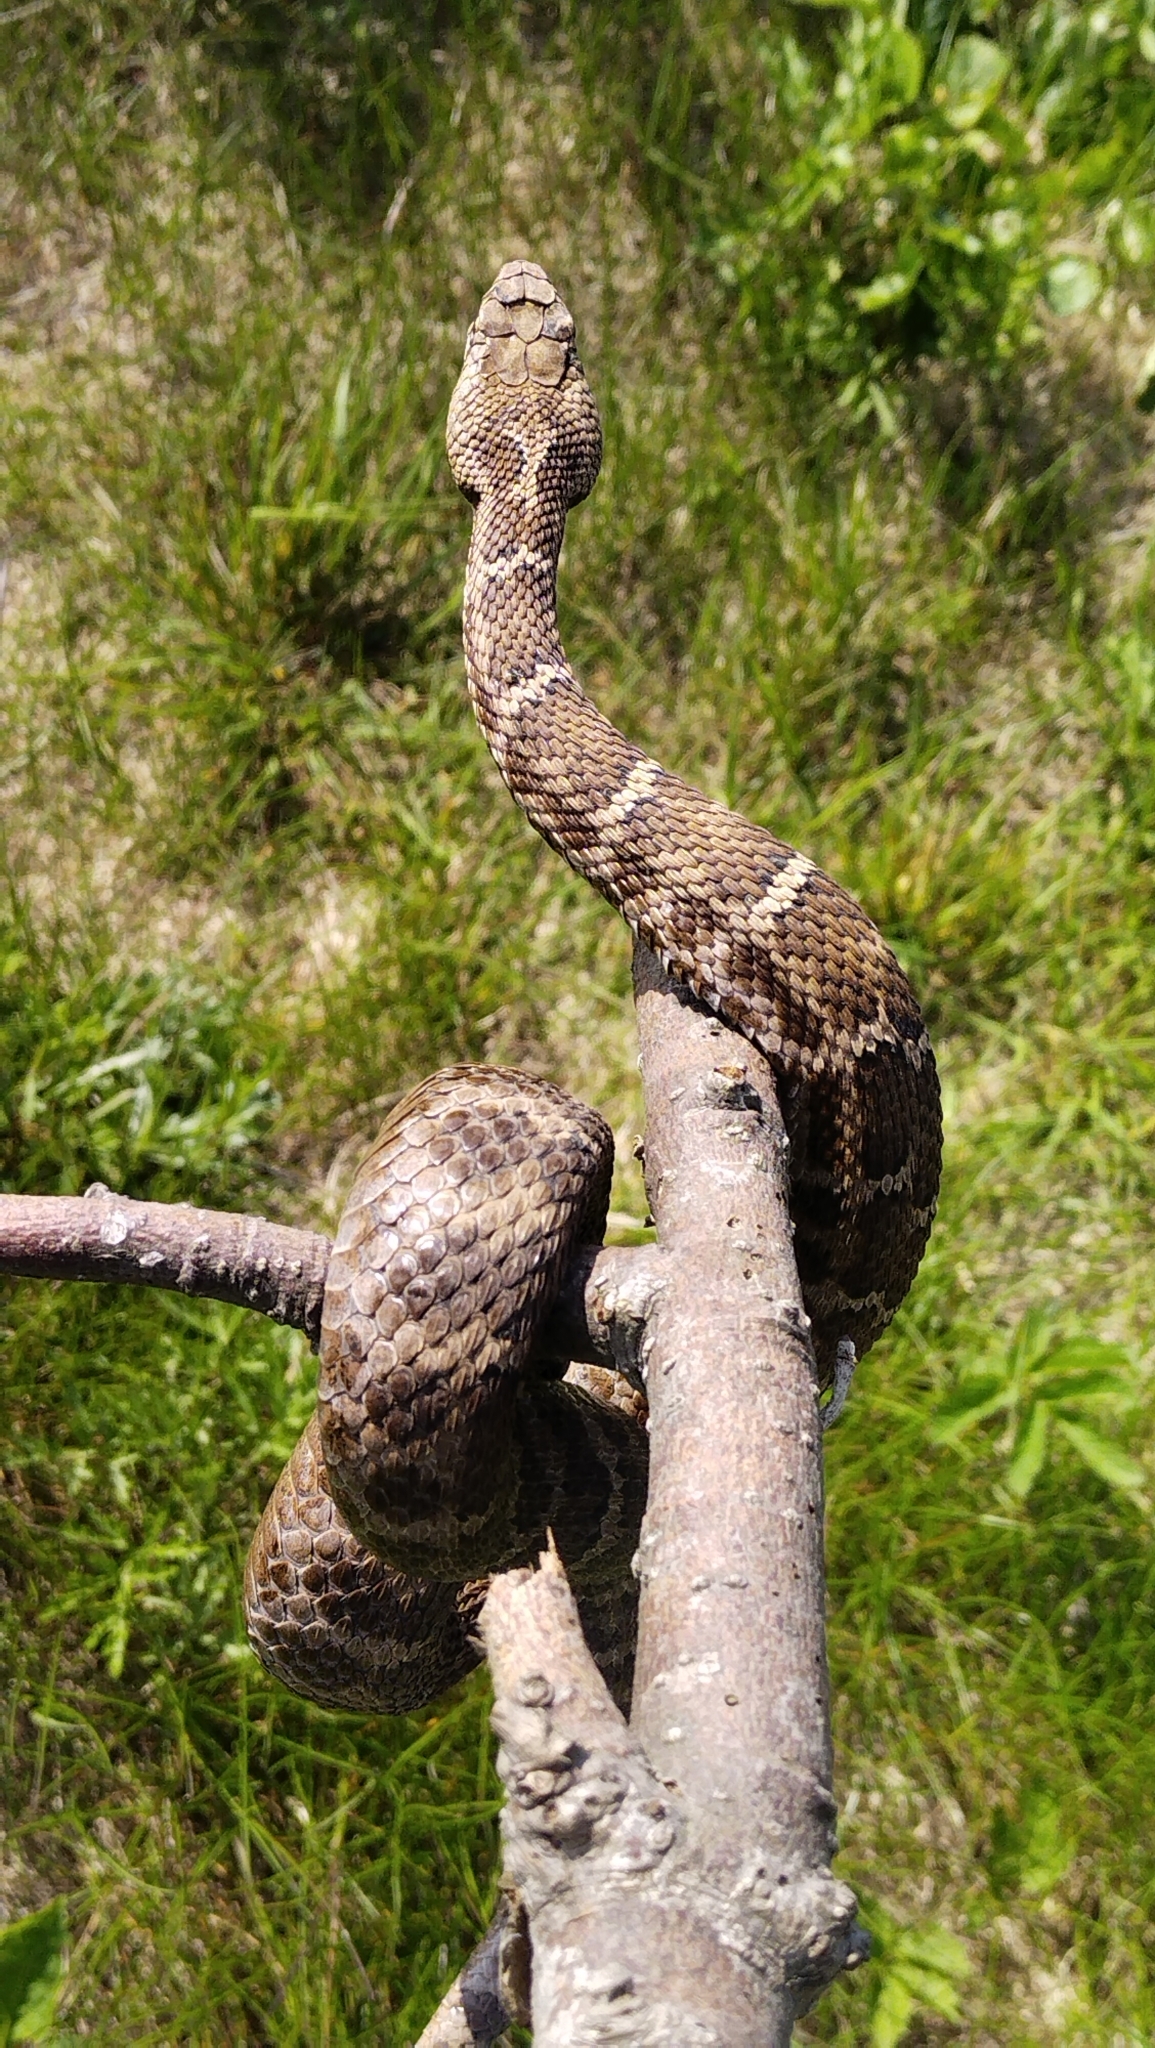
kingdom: Animalia
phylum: Chordata
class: Squamata
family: Viperidae
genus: Gloydius
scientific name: Gloydius intermedius
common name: Central asian pit viper
